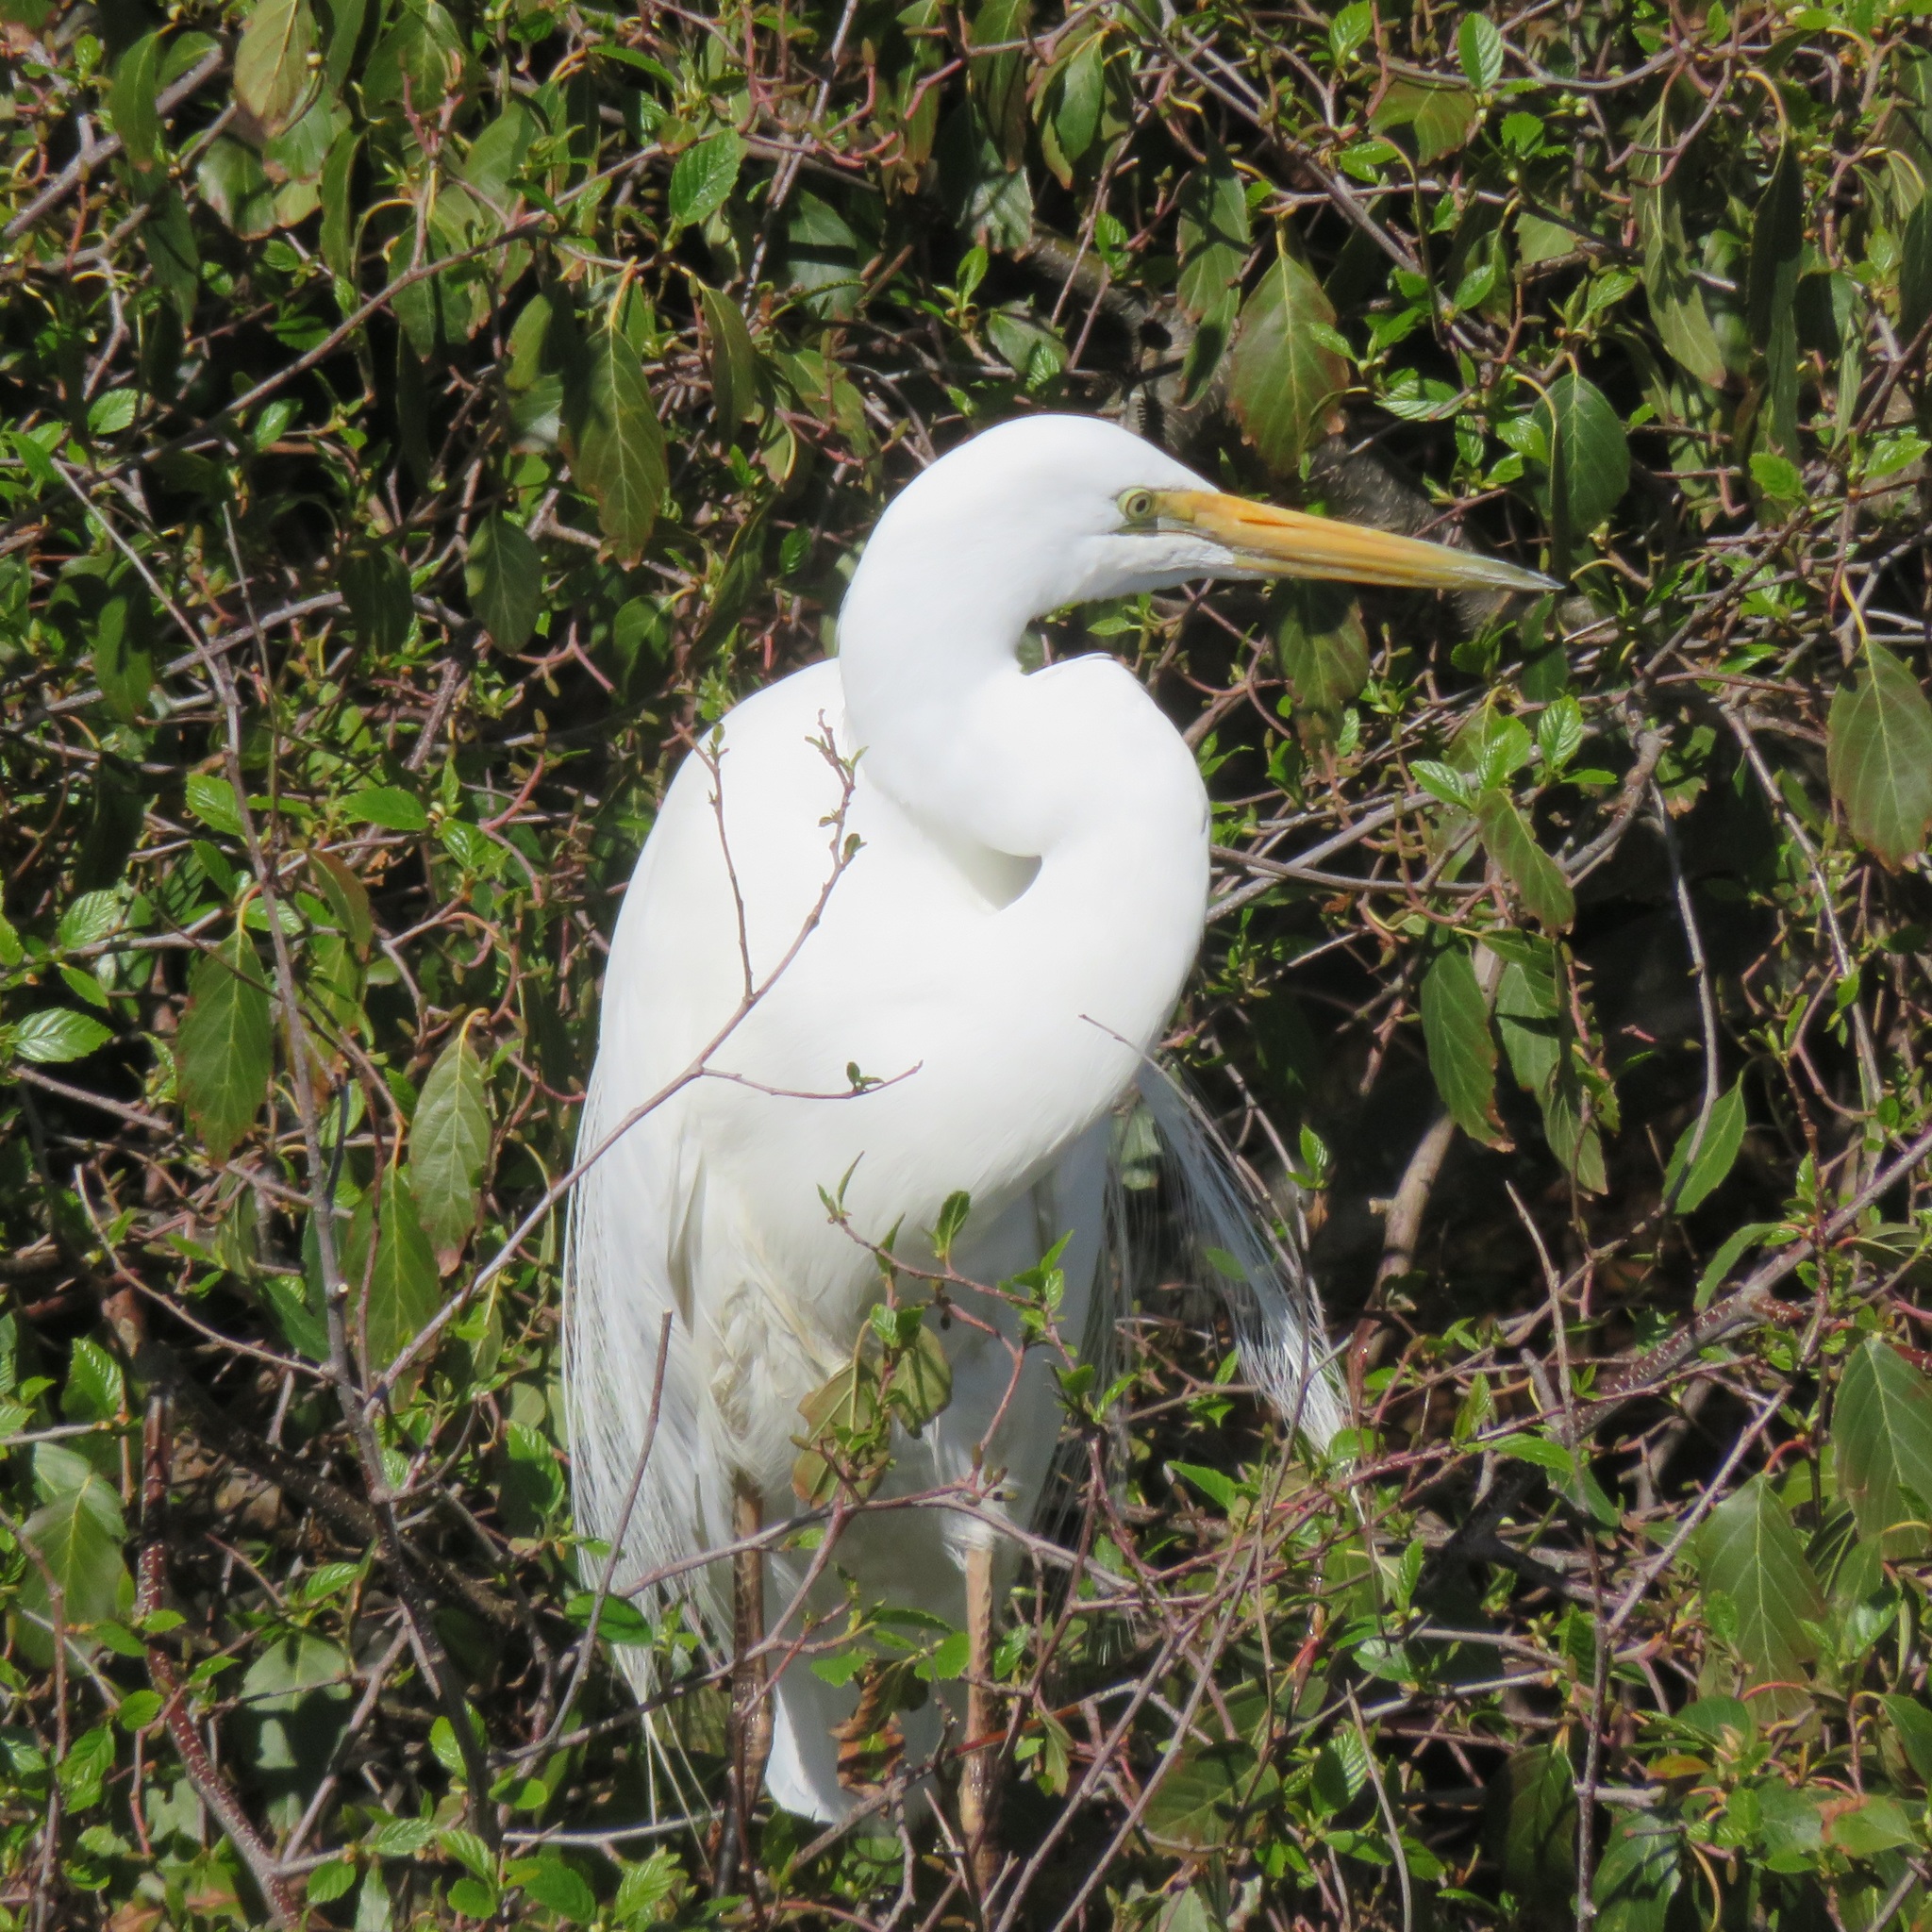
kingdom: Animalia
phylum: Chordata
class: Aves
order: Pelecaniformes
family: Ardeidae
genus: Ardea
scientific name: Ardea modesta
